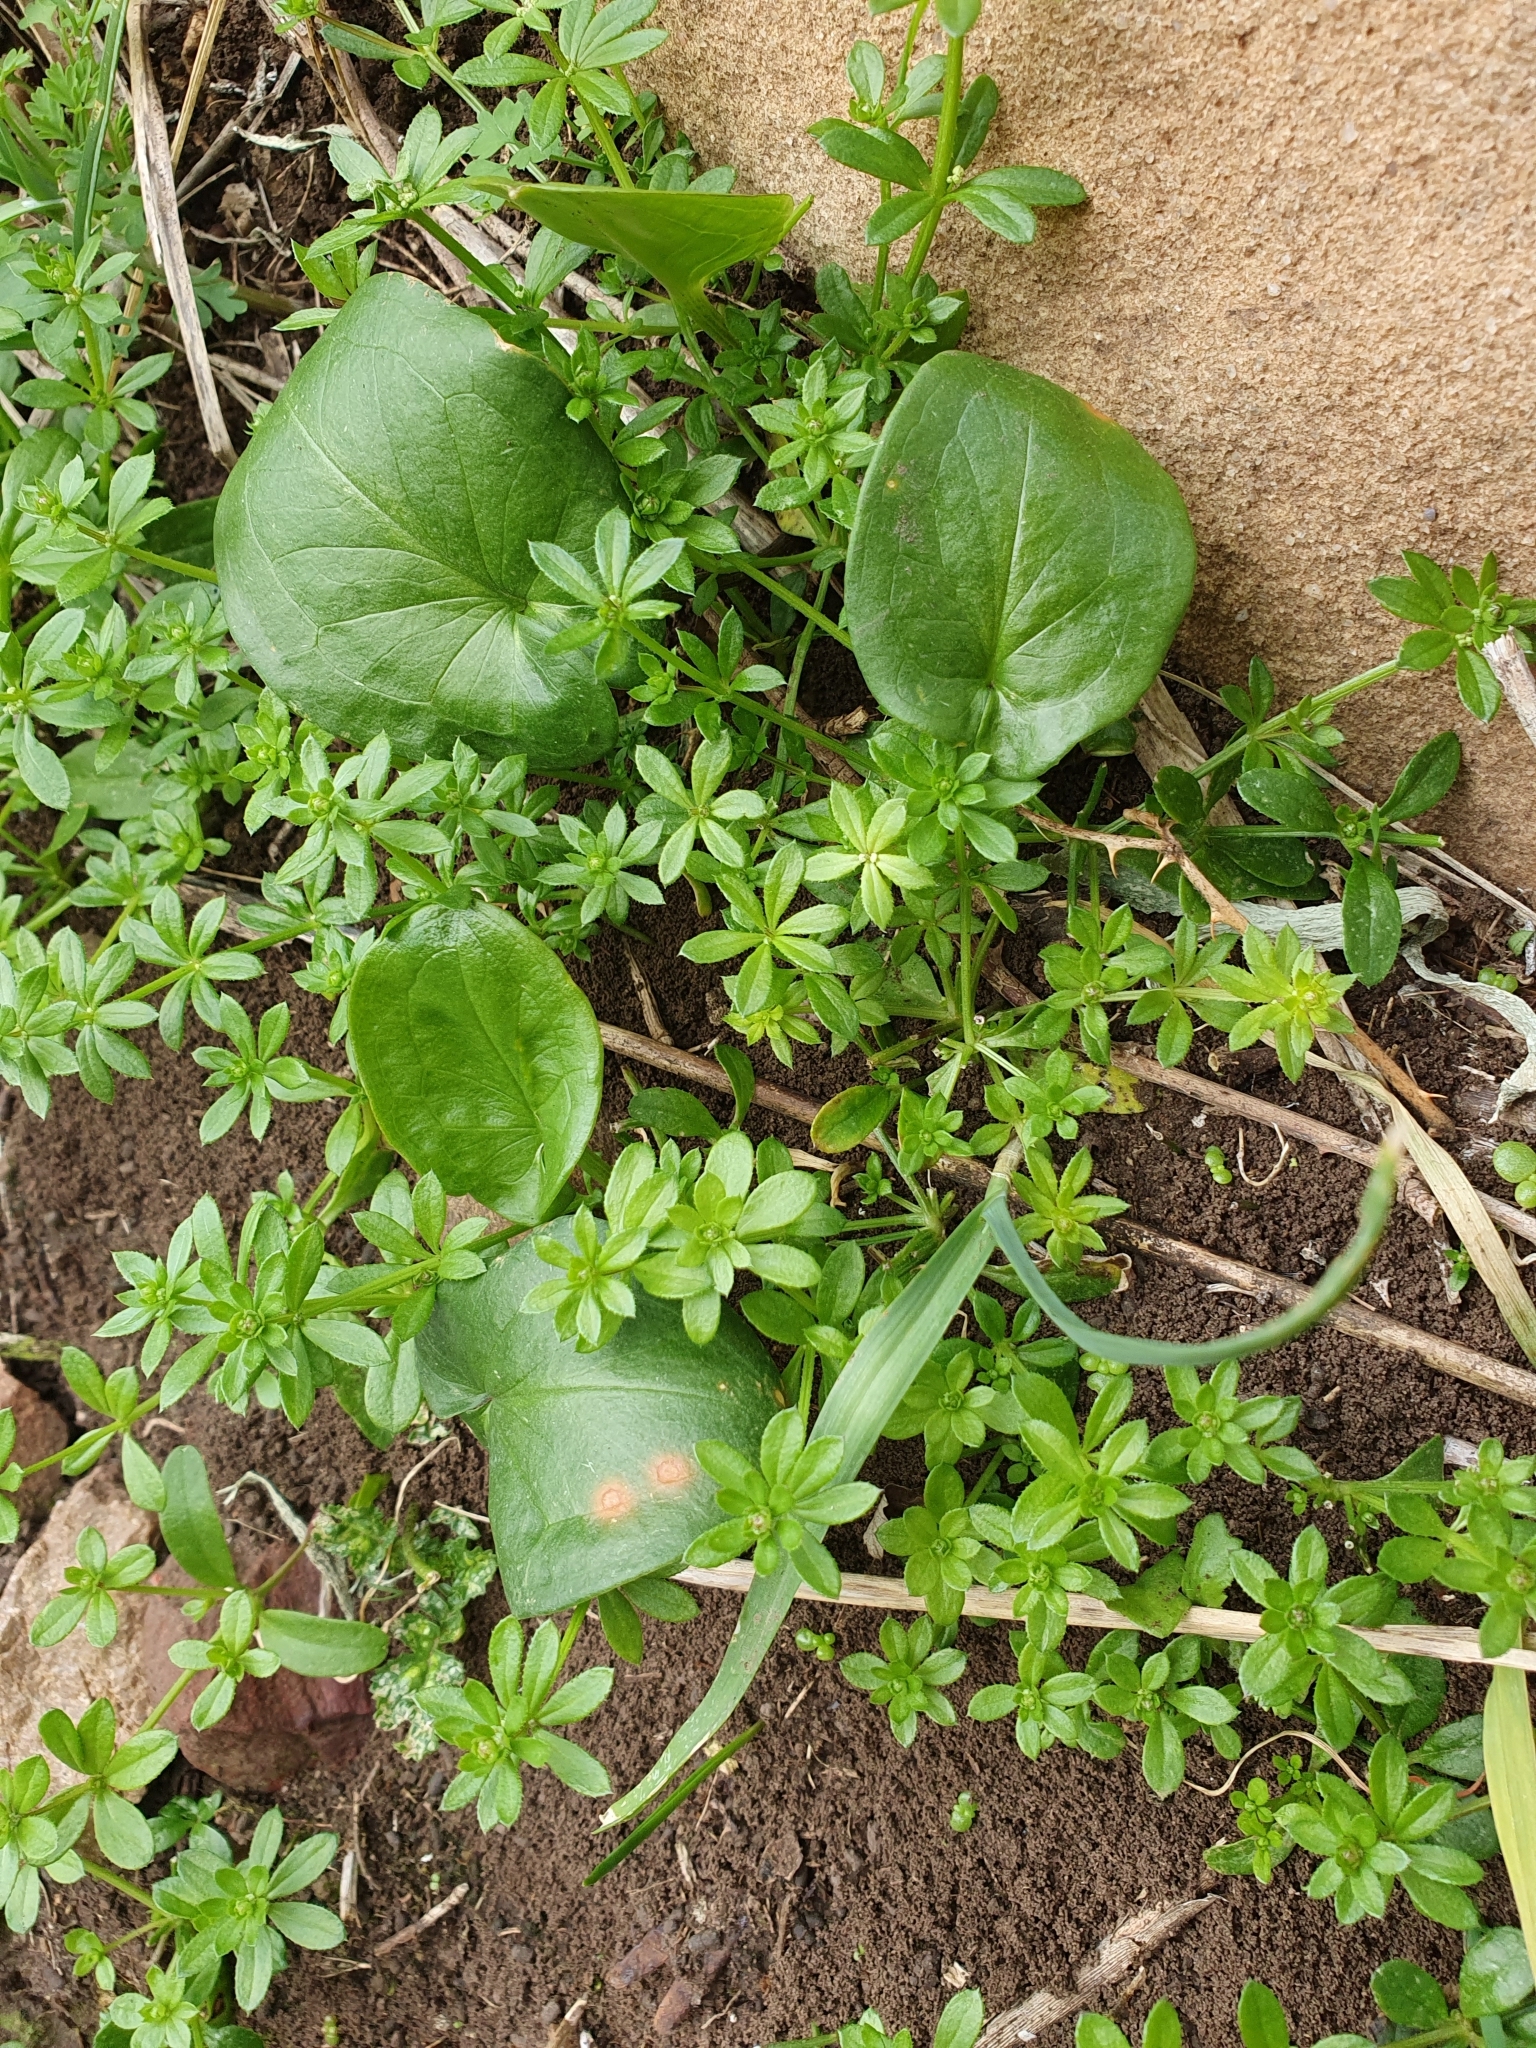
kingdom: Plantae
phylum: Tracheophyta
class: Liliopsida
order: Alismatales
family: Araceae
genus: Arisarum
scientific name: Arisarum vulgare
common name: Common arisarum
